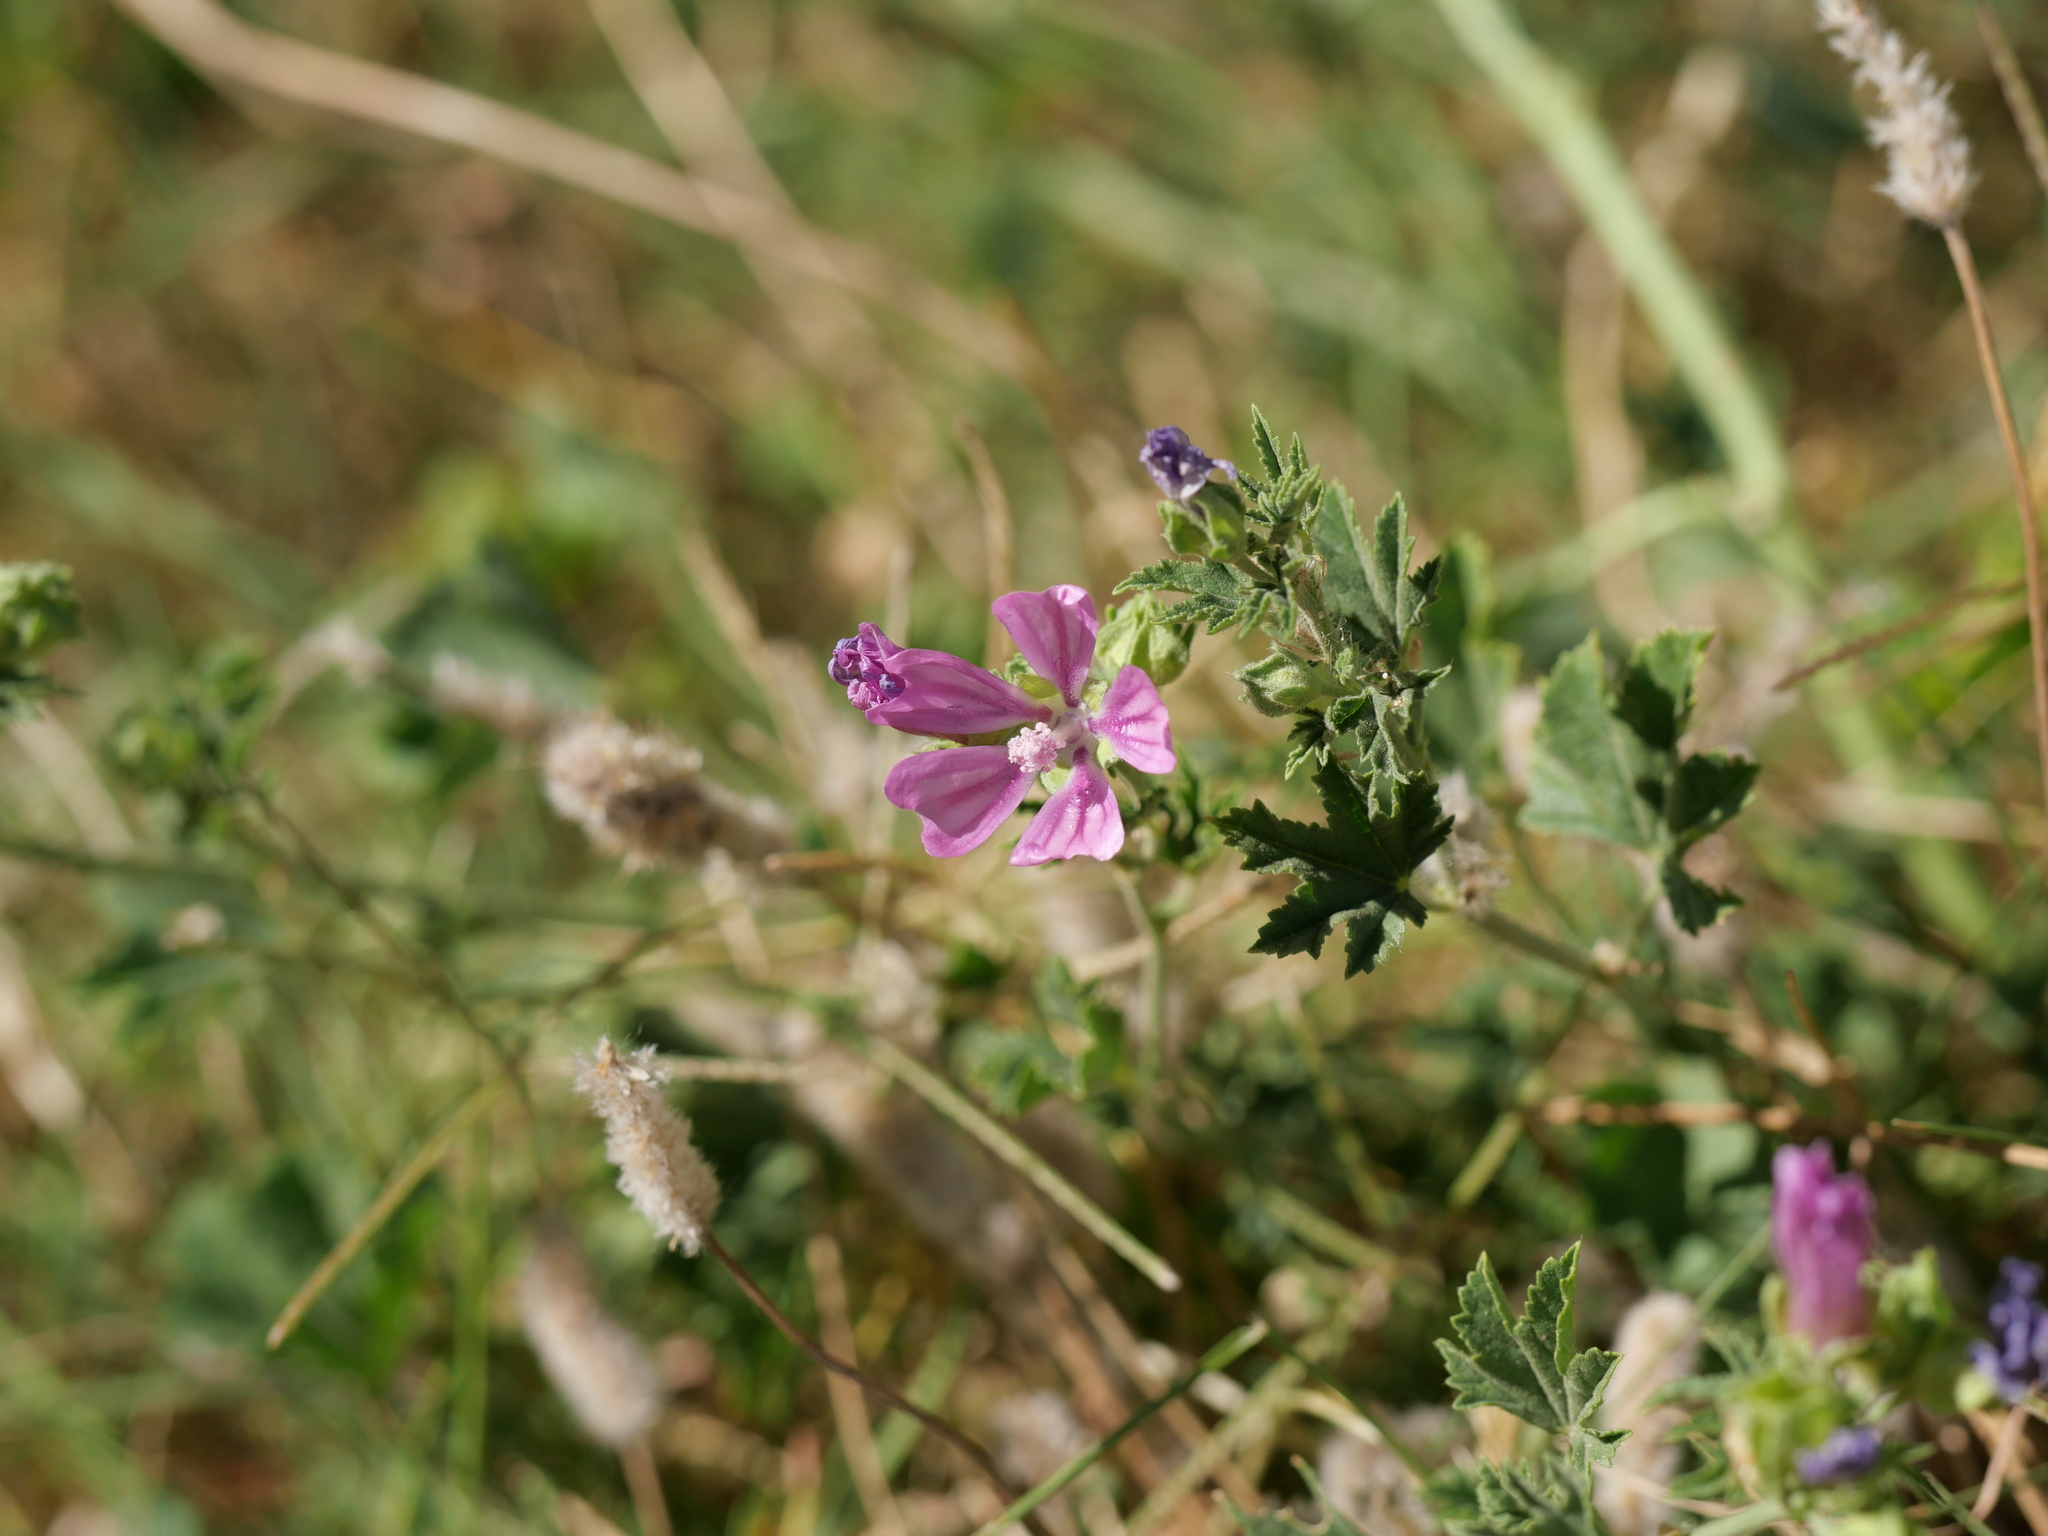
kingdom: Plantae
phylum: Tracheophyta
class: Magnoliopsida
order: Malvales
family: Malvaceae
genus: Malva
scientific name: Malva sylvestris
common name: Common mallow
